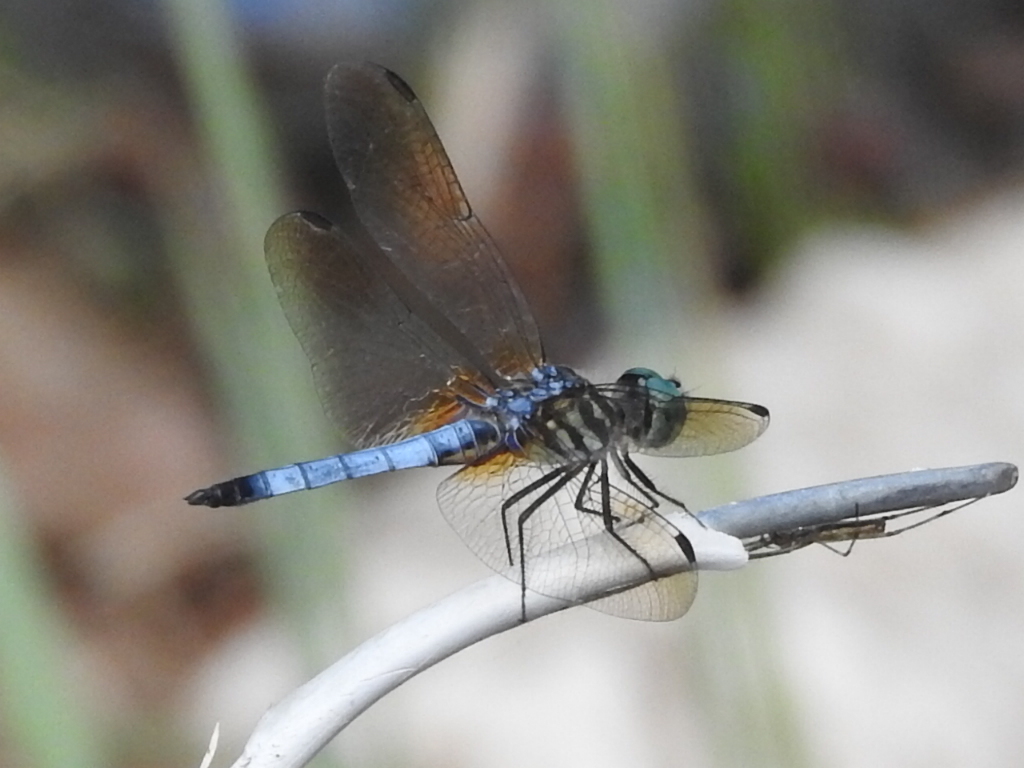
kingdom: Animalia
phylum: Arthropoda
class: Insecta
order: Odonata
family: Libellulidae
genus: Pachydiplax
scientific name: Pachydiplax longipennis
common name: Blue dasher
